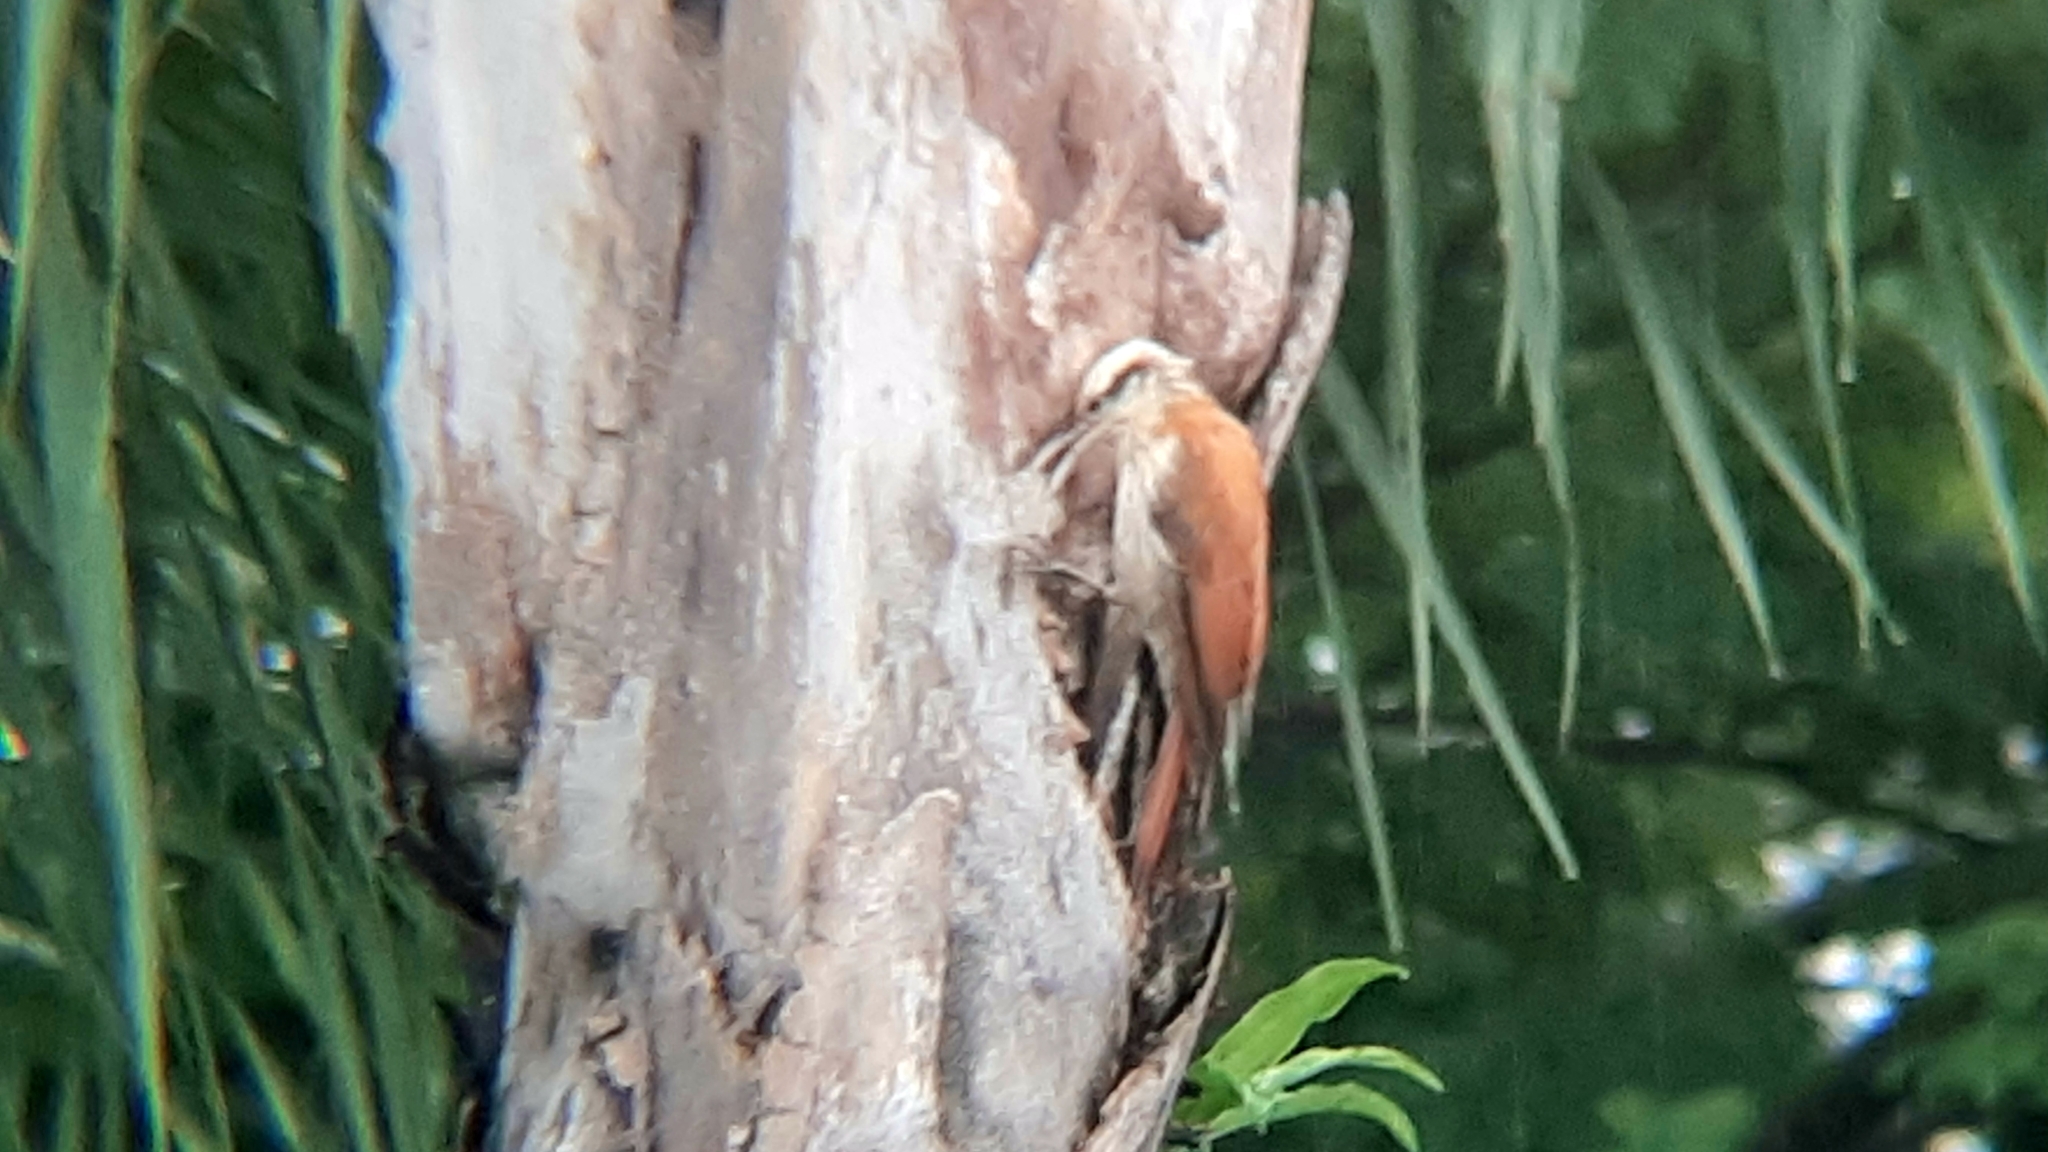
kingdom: Animalia
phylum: Chordata
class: Aves
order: Passeriformes
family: Furnariidae
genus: Lepidocolaptes
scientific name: Lepidocolaptes angustirostris
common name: Narrow-billed woodcreeper
